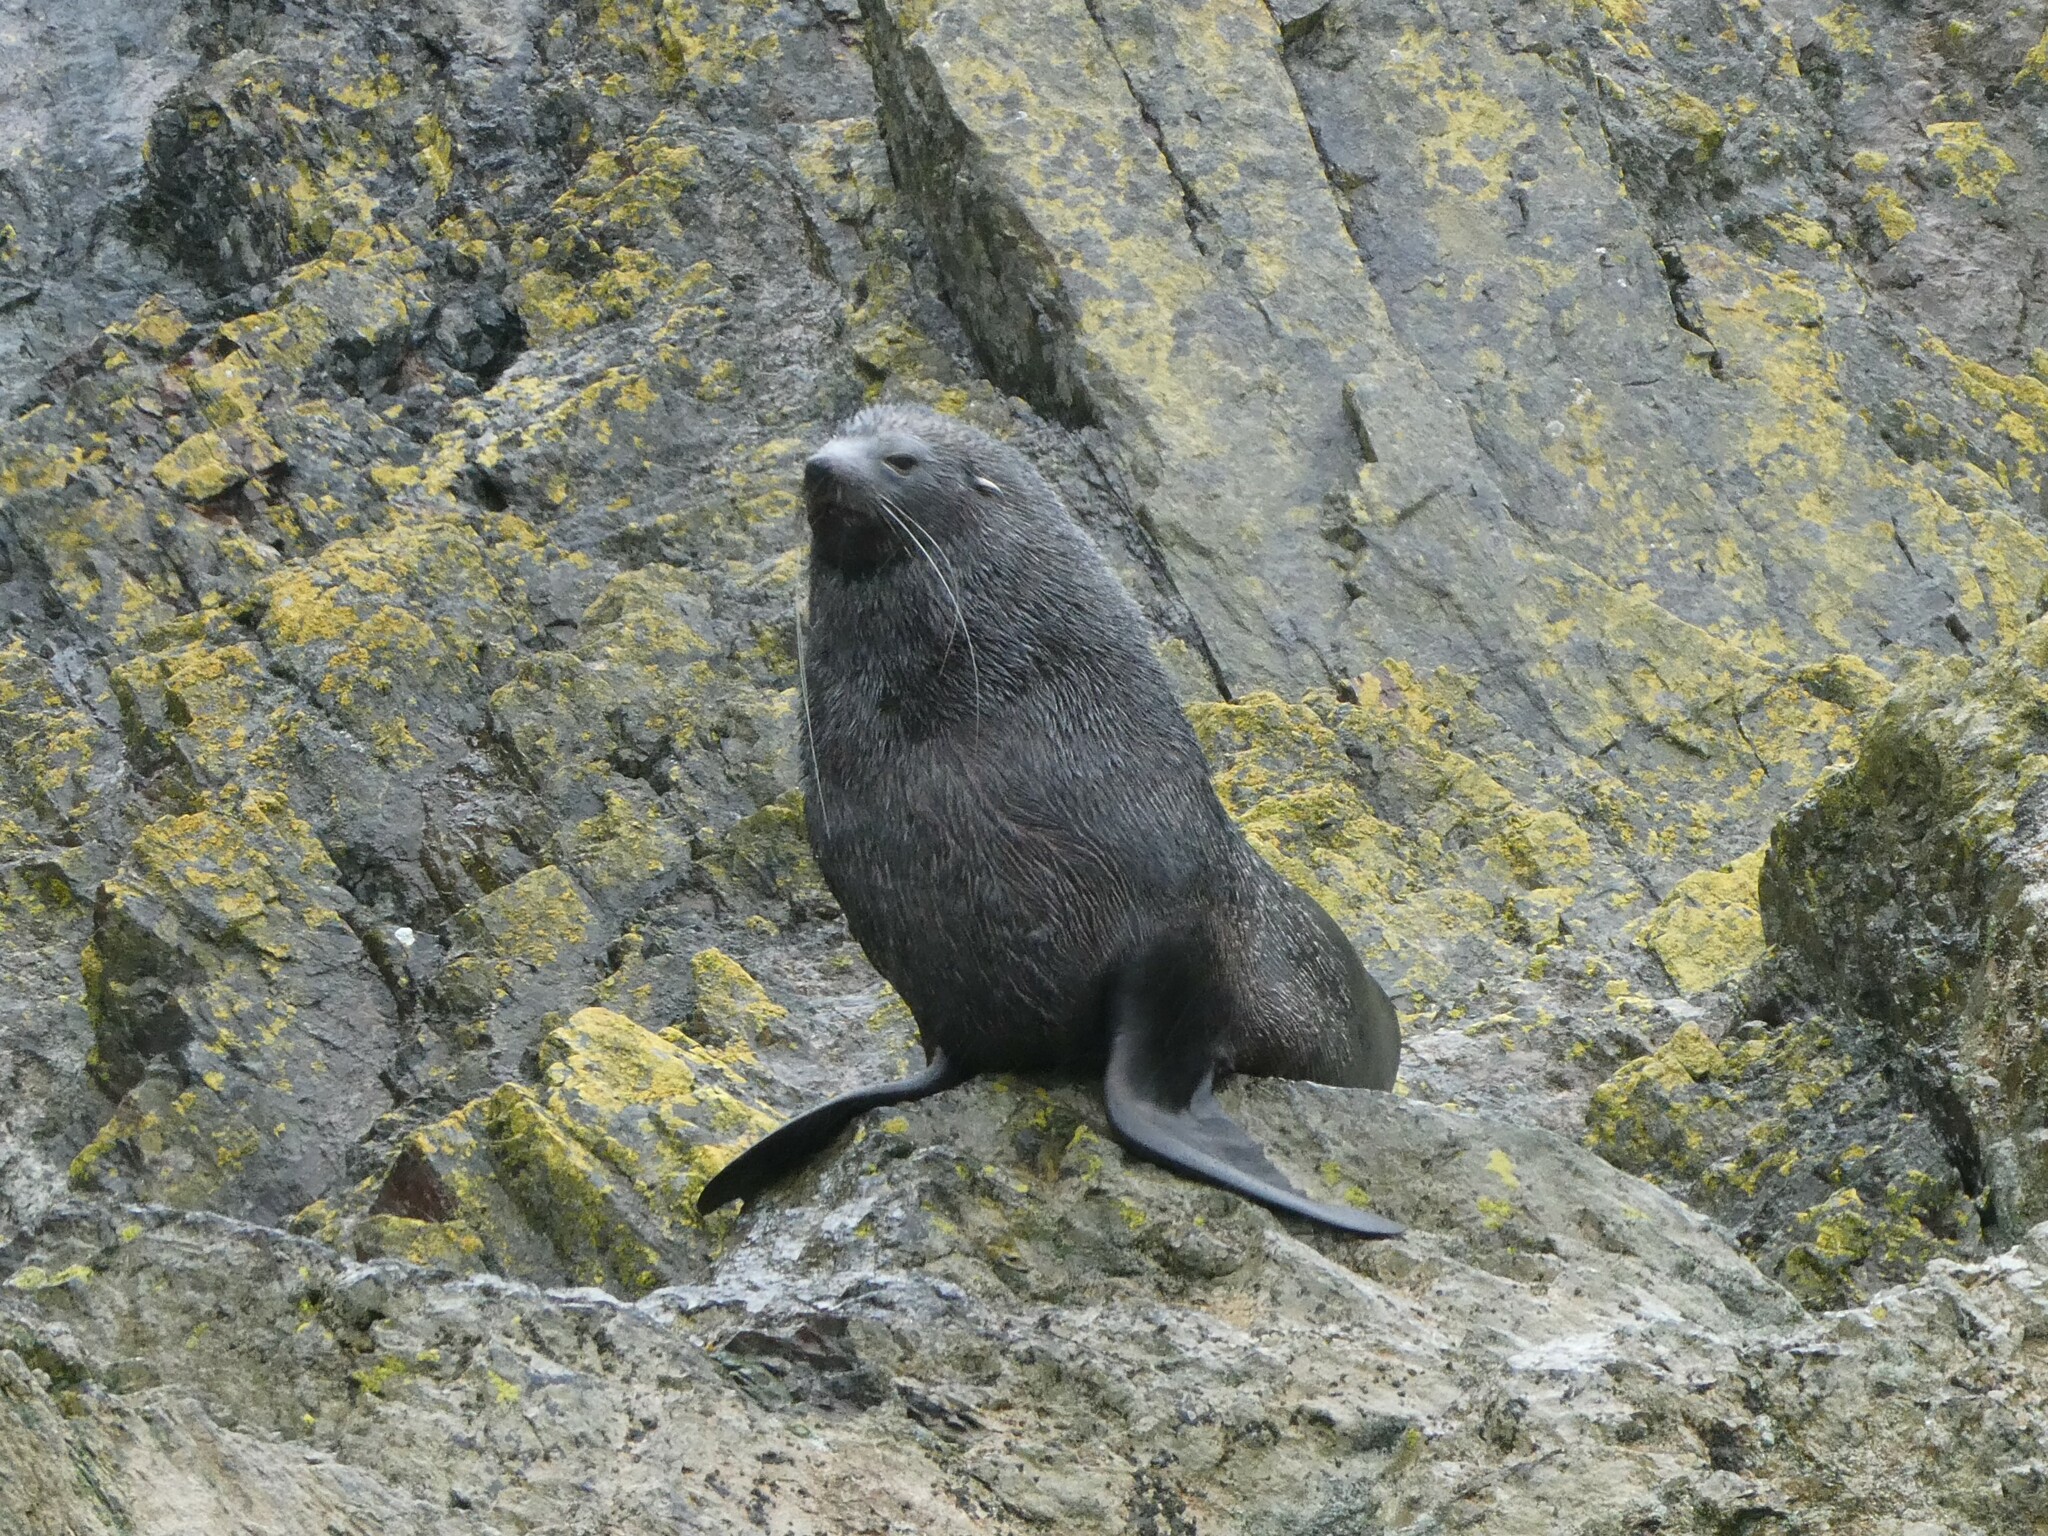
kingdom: Animalia
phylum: Chordata
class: Mammalia
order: Carnivora
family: Otariidae
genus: Arctocephalus
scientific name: Arctocephalus gazella
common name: Antarctic fur seal
